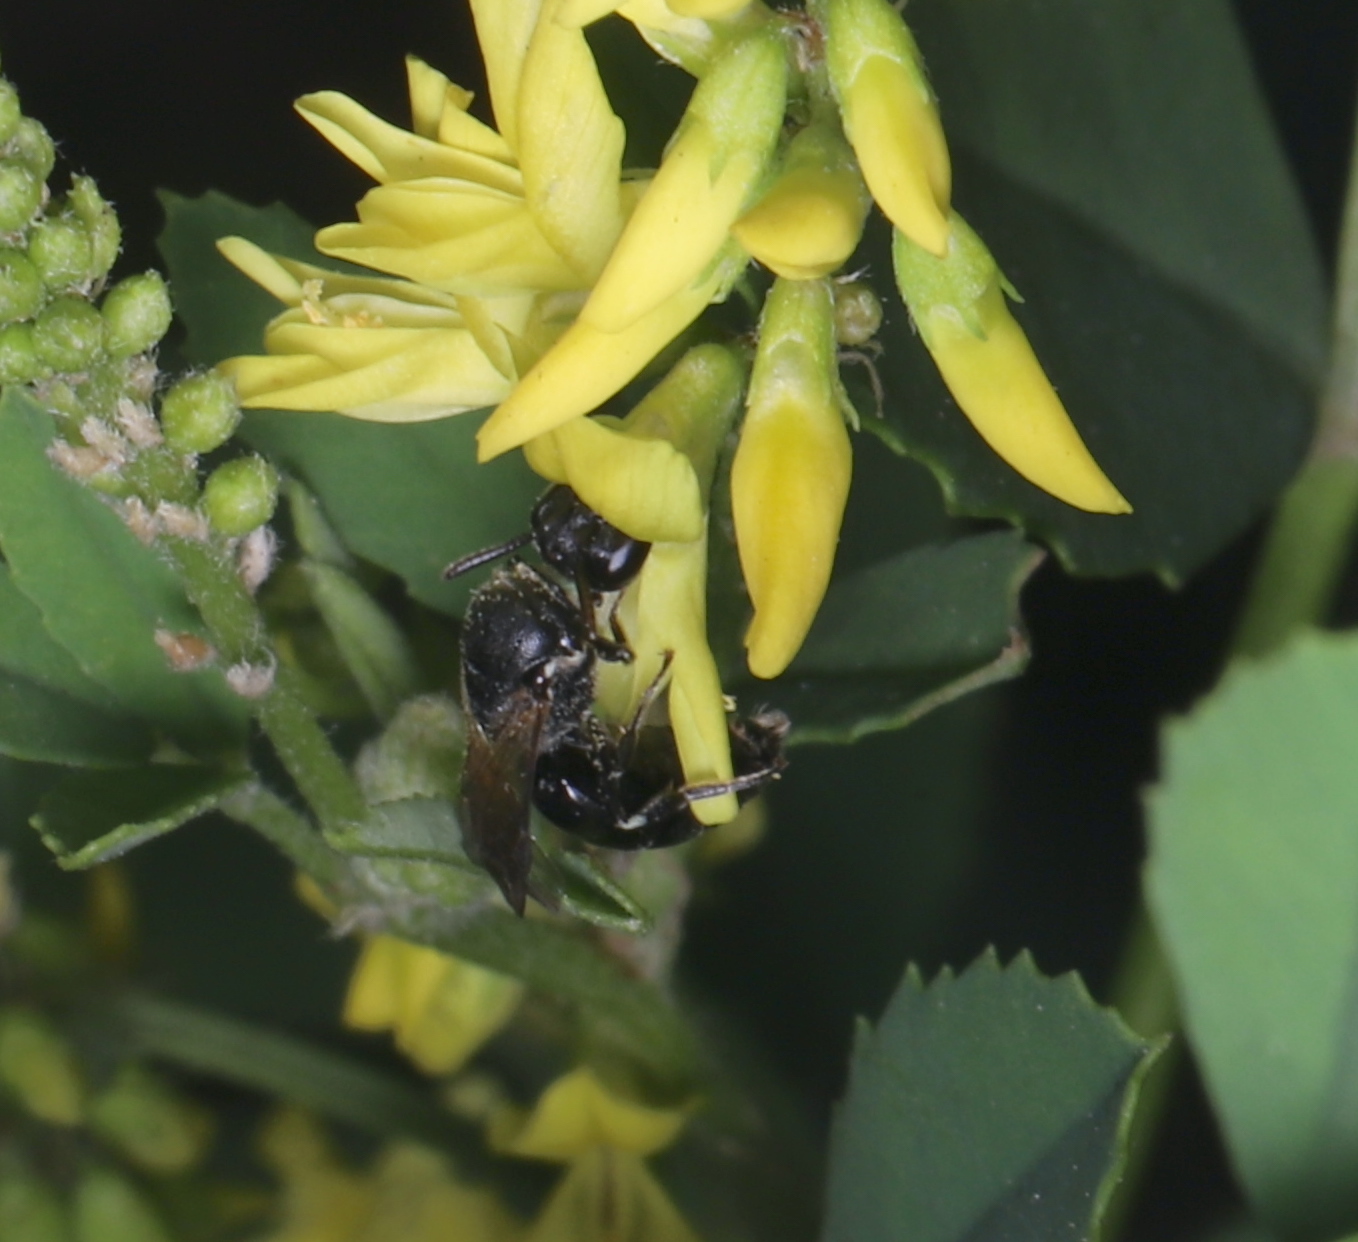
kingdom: Animalia
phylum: Arthropoda
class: Insecta
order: Hymenoptera
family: Colletidae
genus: Hylaeus
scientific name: Hylaeus
